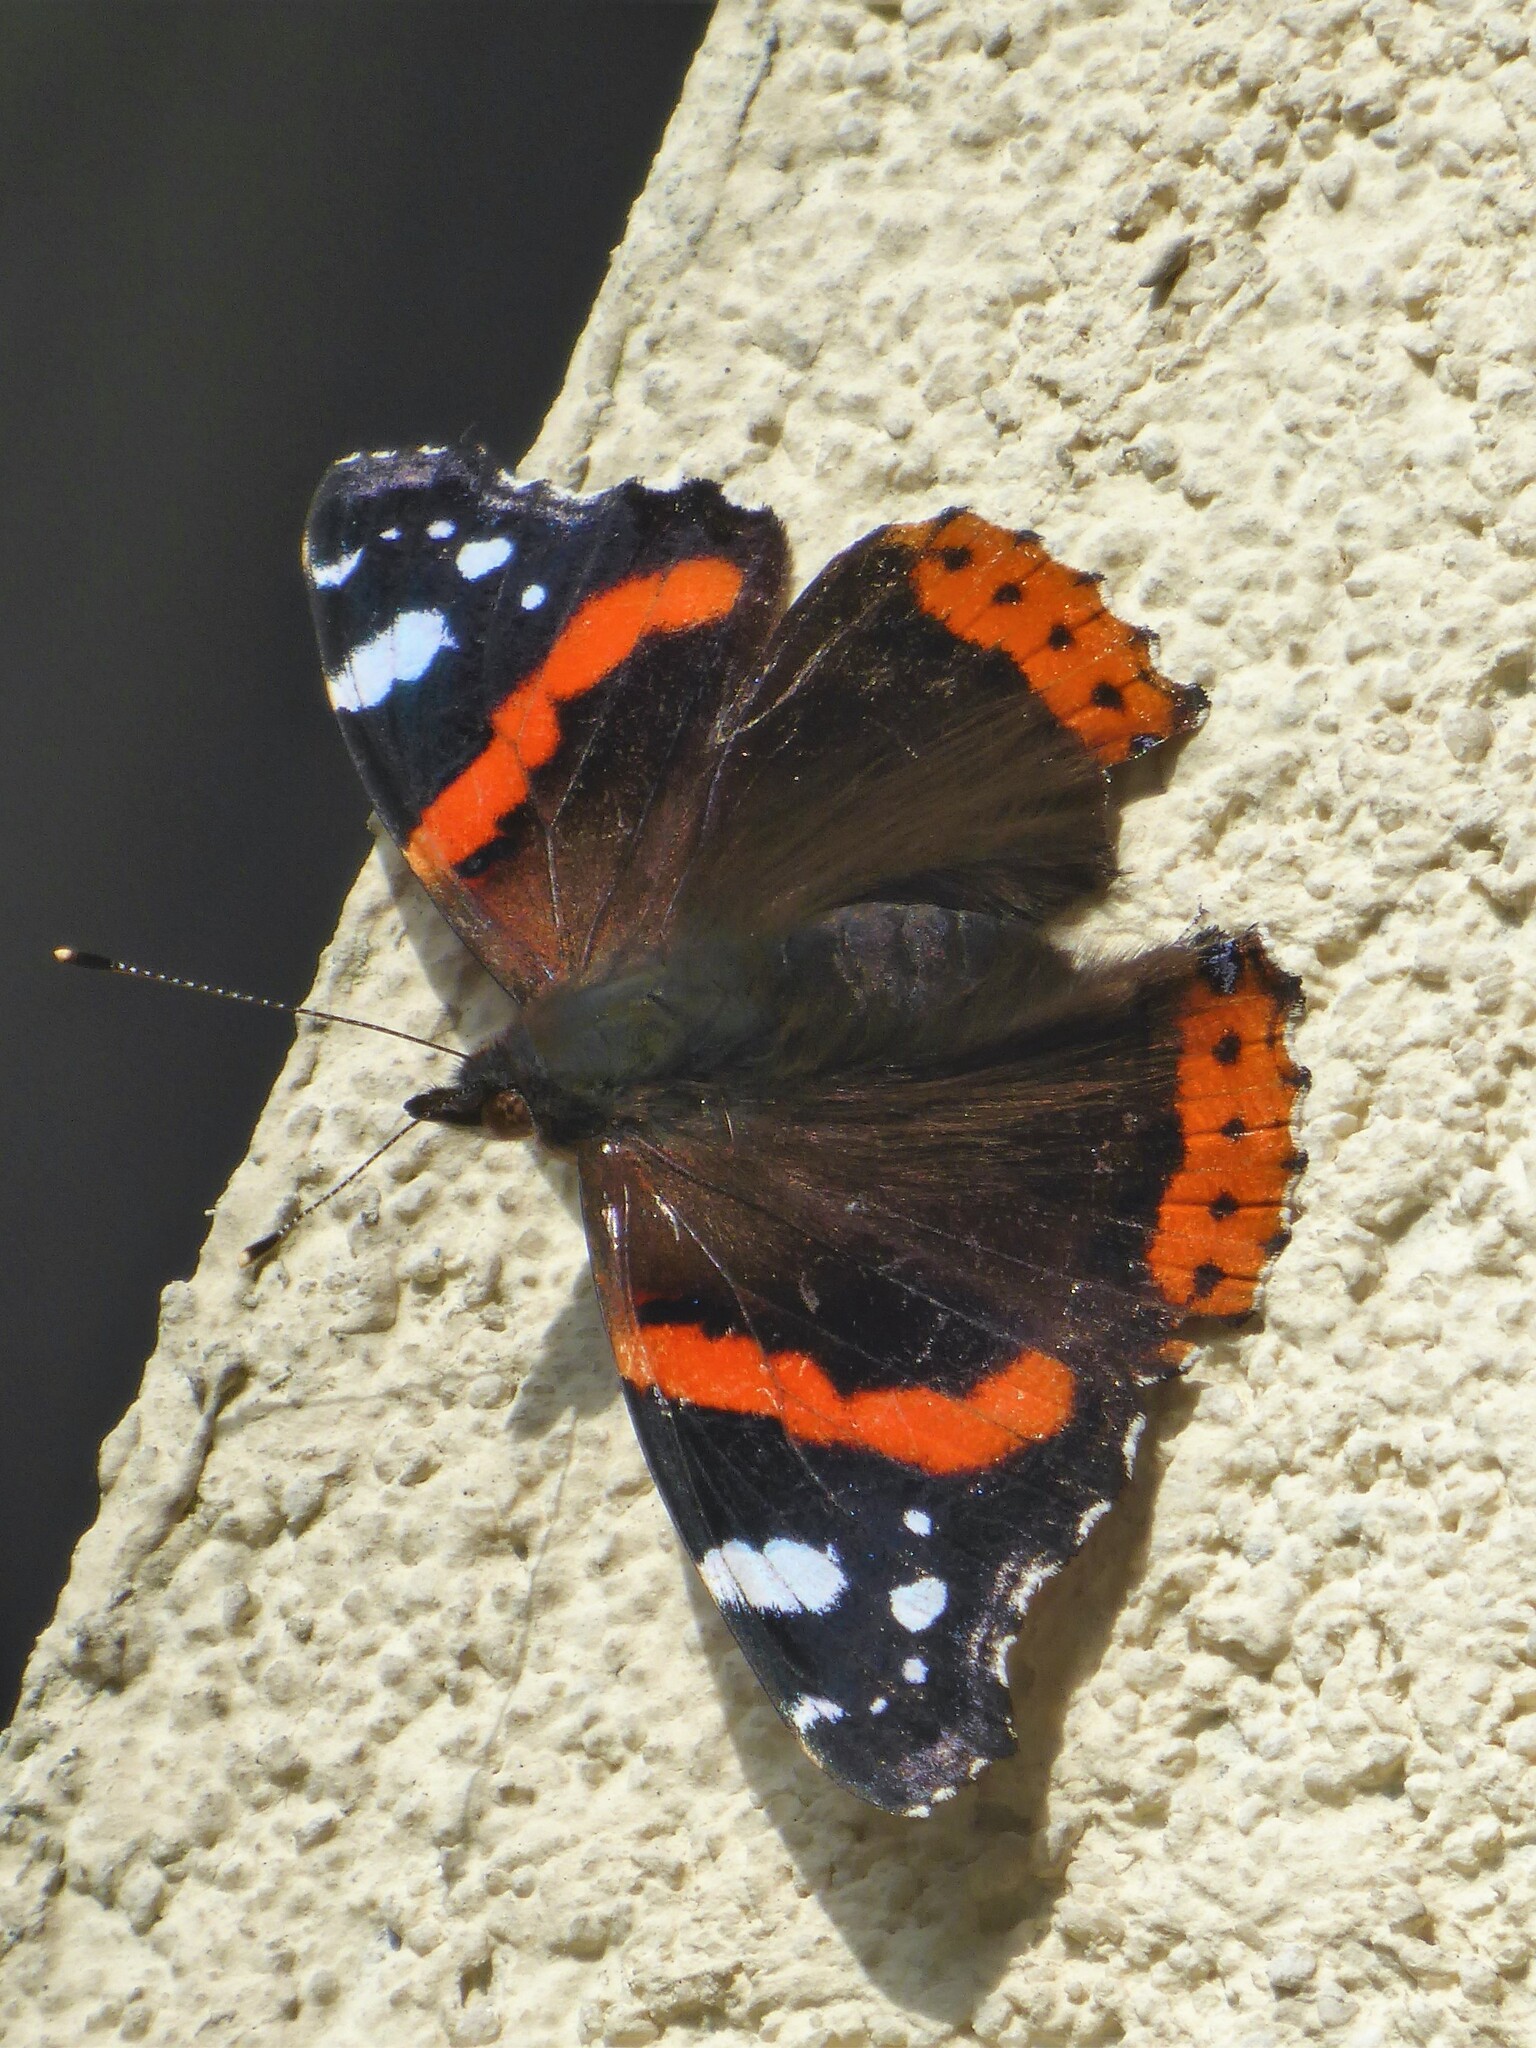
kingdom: Animalia
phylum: Arthropoda
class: Insecta
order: Lepidoptera
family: Nymphalidae
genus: Vanessa
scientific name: Vanessa atalanta
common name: Red admiral
